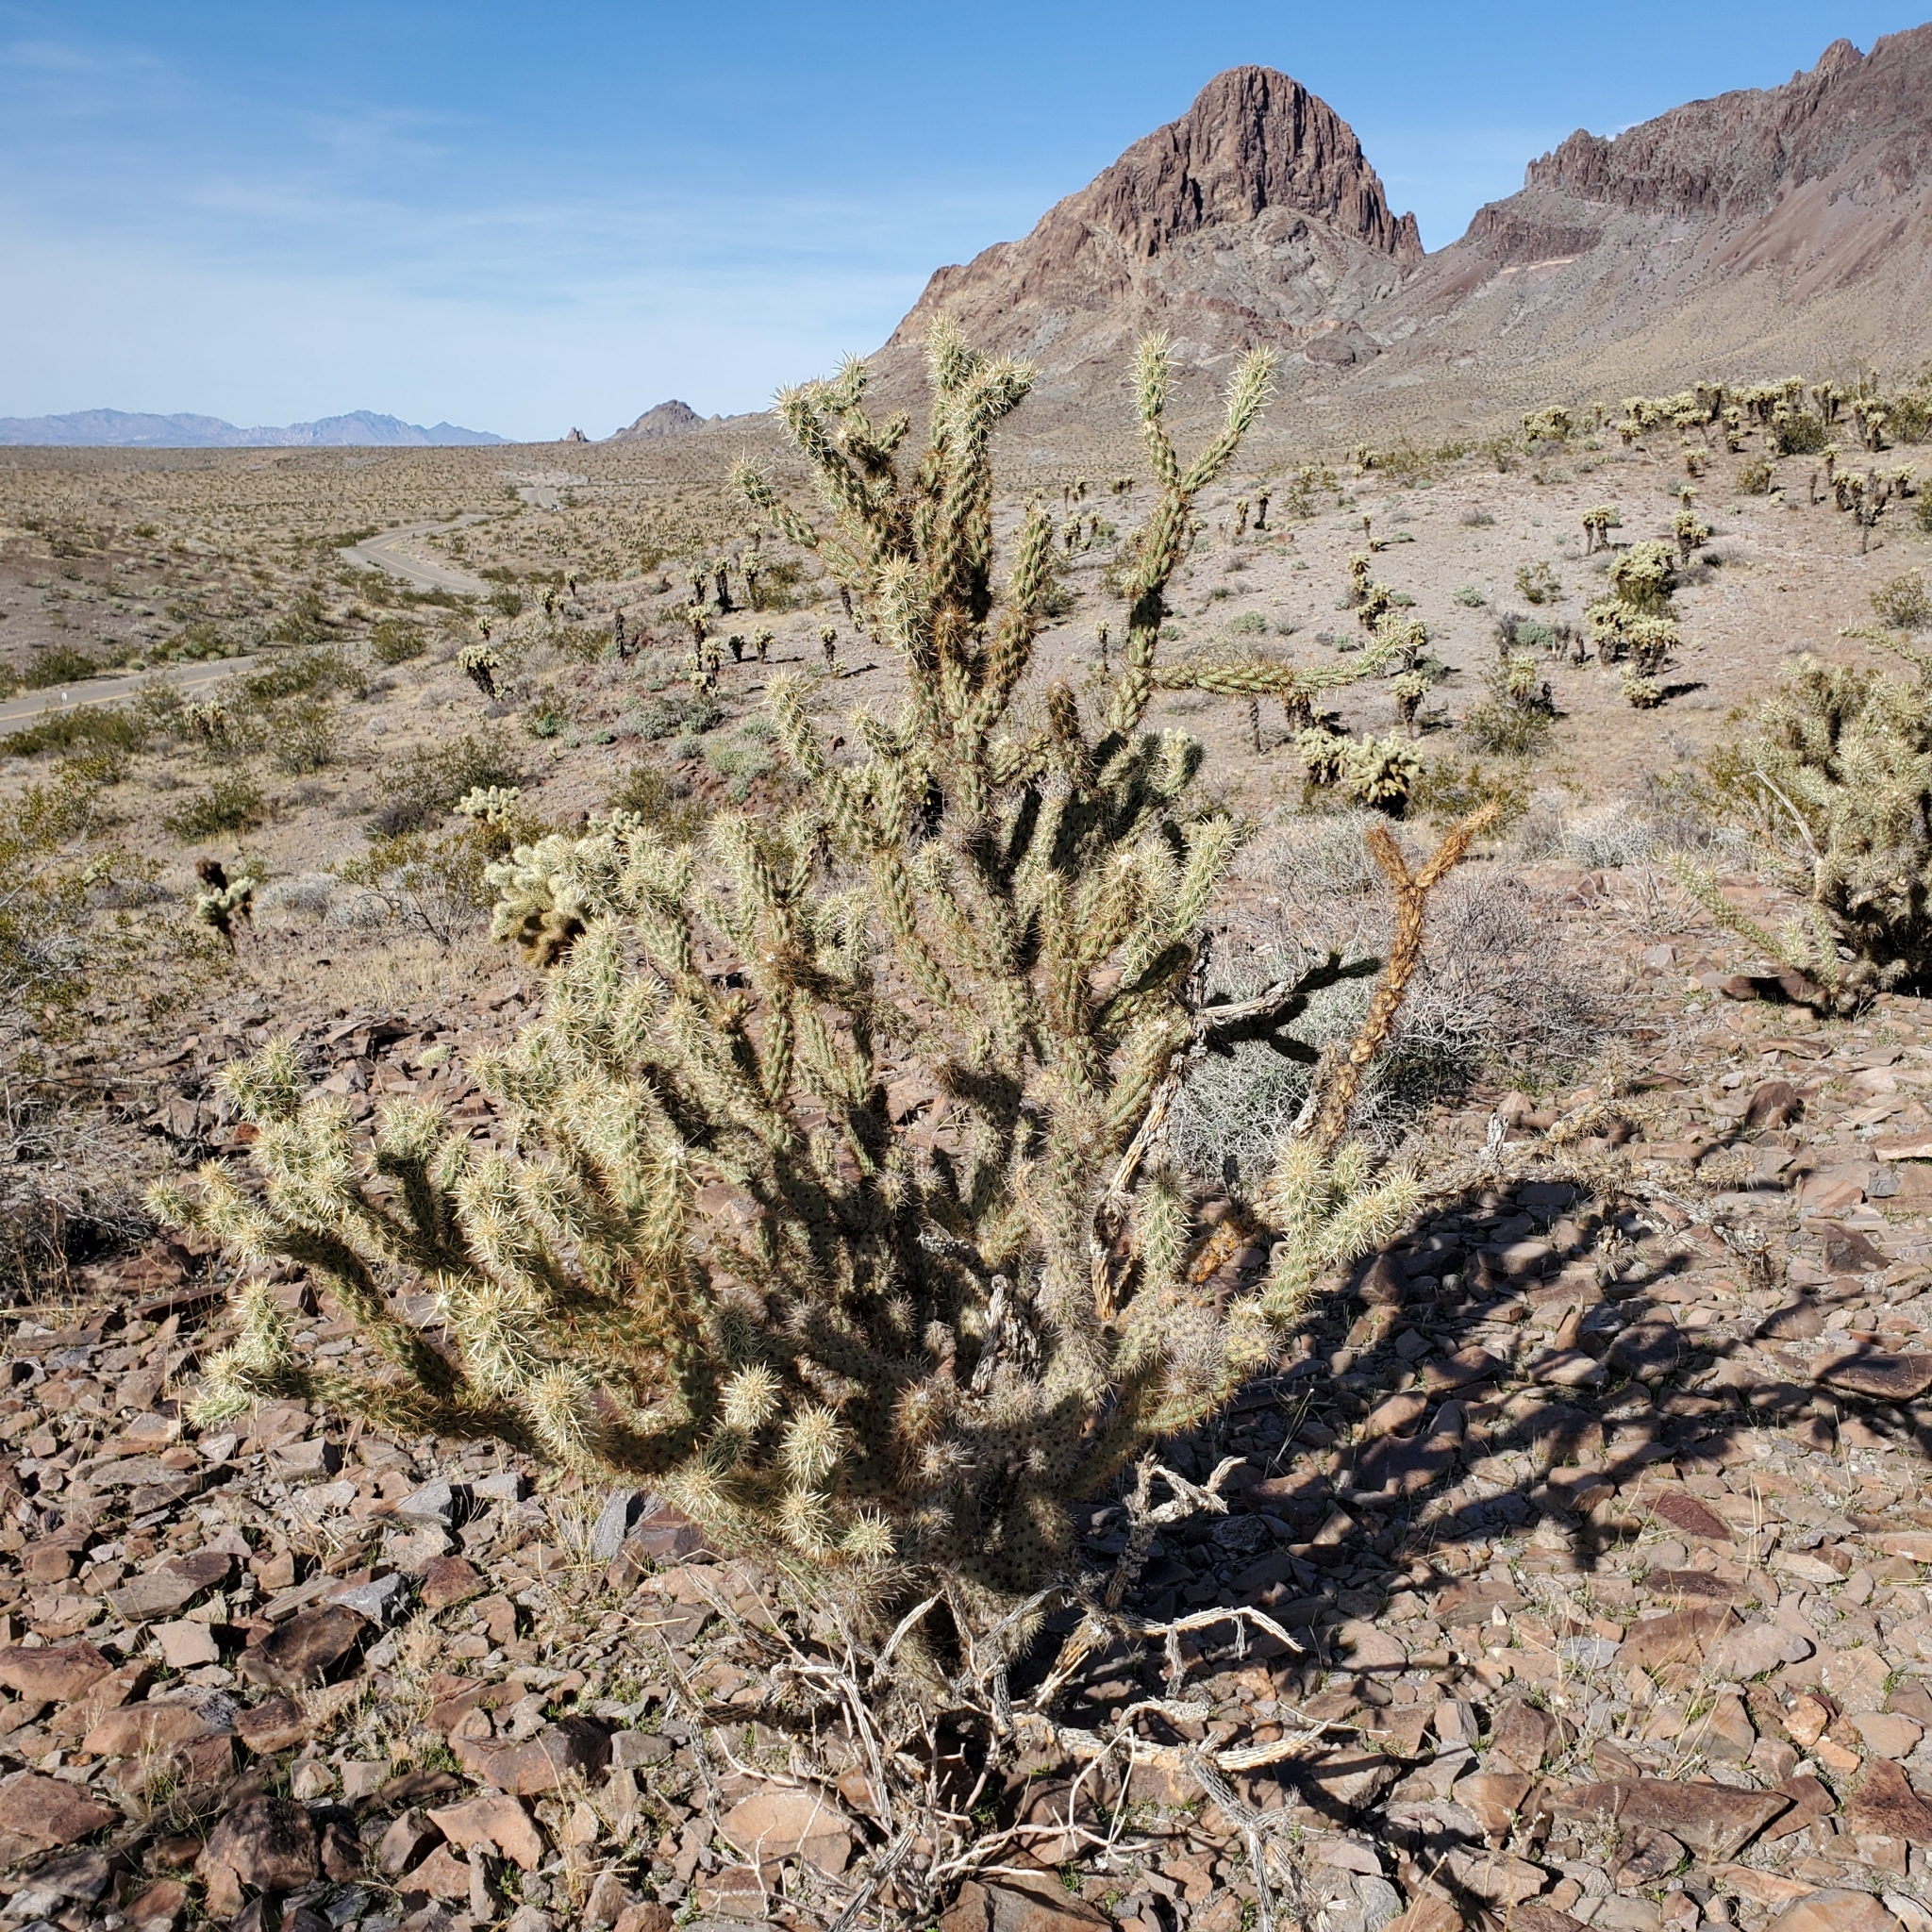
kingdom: Plantae
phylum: Tracheophyta
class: Magnoliopsida
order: Caryophyllales
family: Cactaceae
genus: Cylindropuntia
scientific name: Cylindropuntia acanthocarpa
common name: Buckhorn cholla
